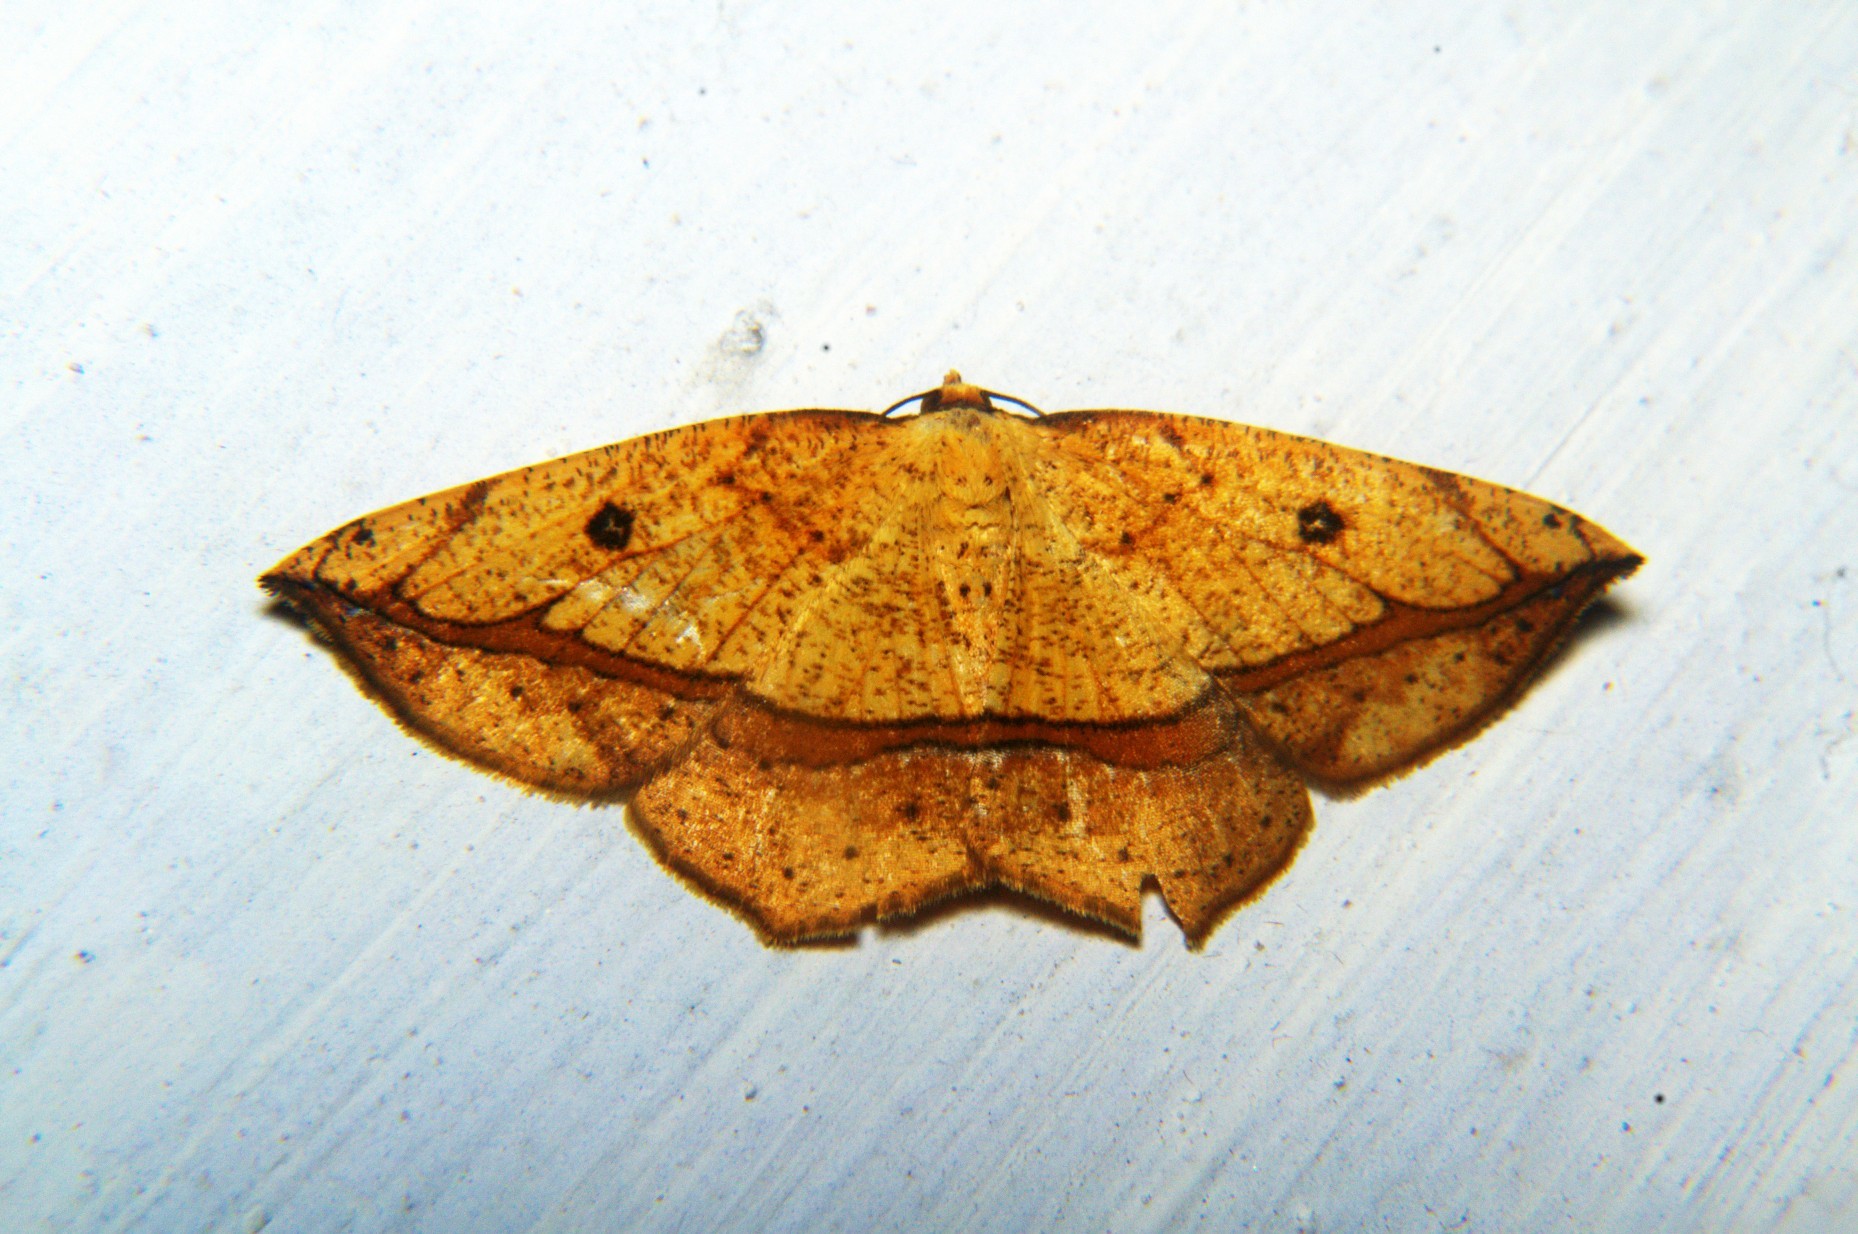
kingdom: Animalia
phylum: Arthropoda
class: Insecta
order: Lepidoptera
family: Geometridae
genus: Entomopteryx
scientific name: Entomopteryx obliquilinea
